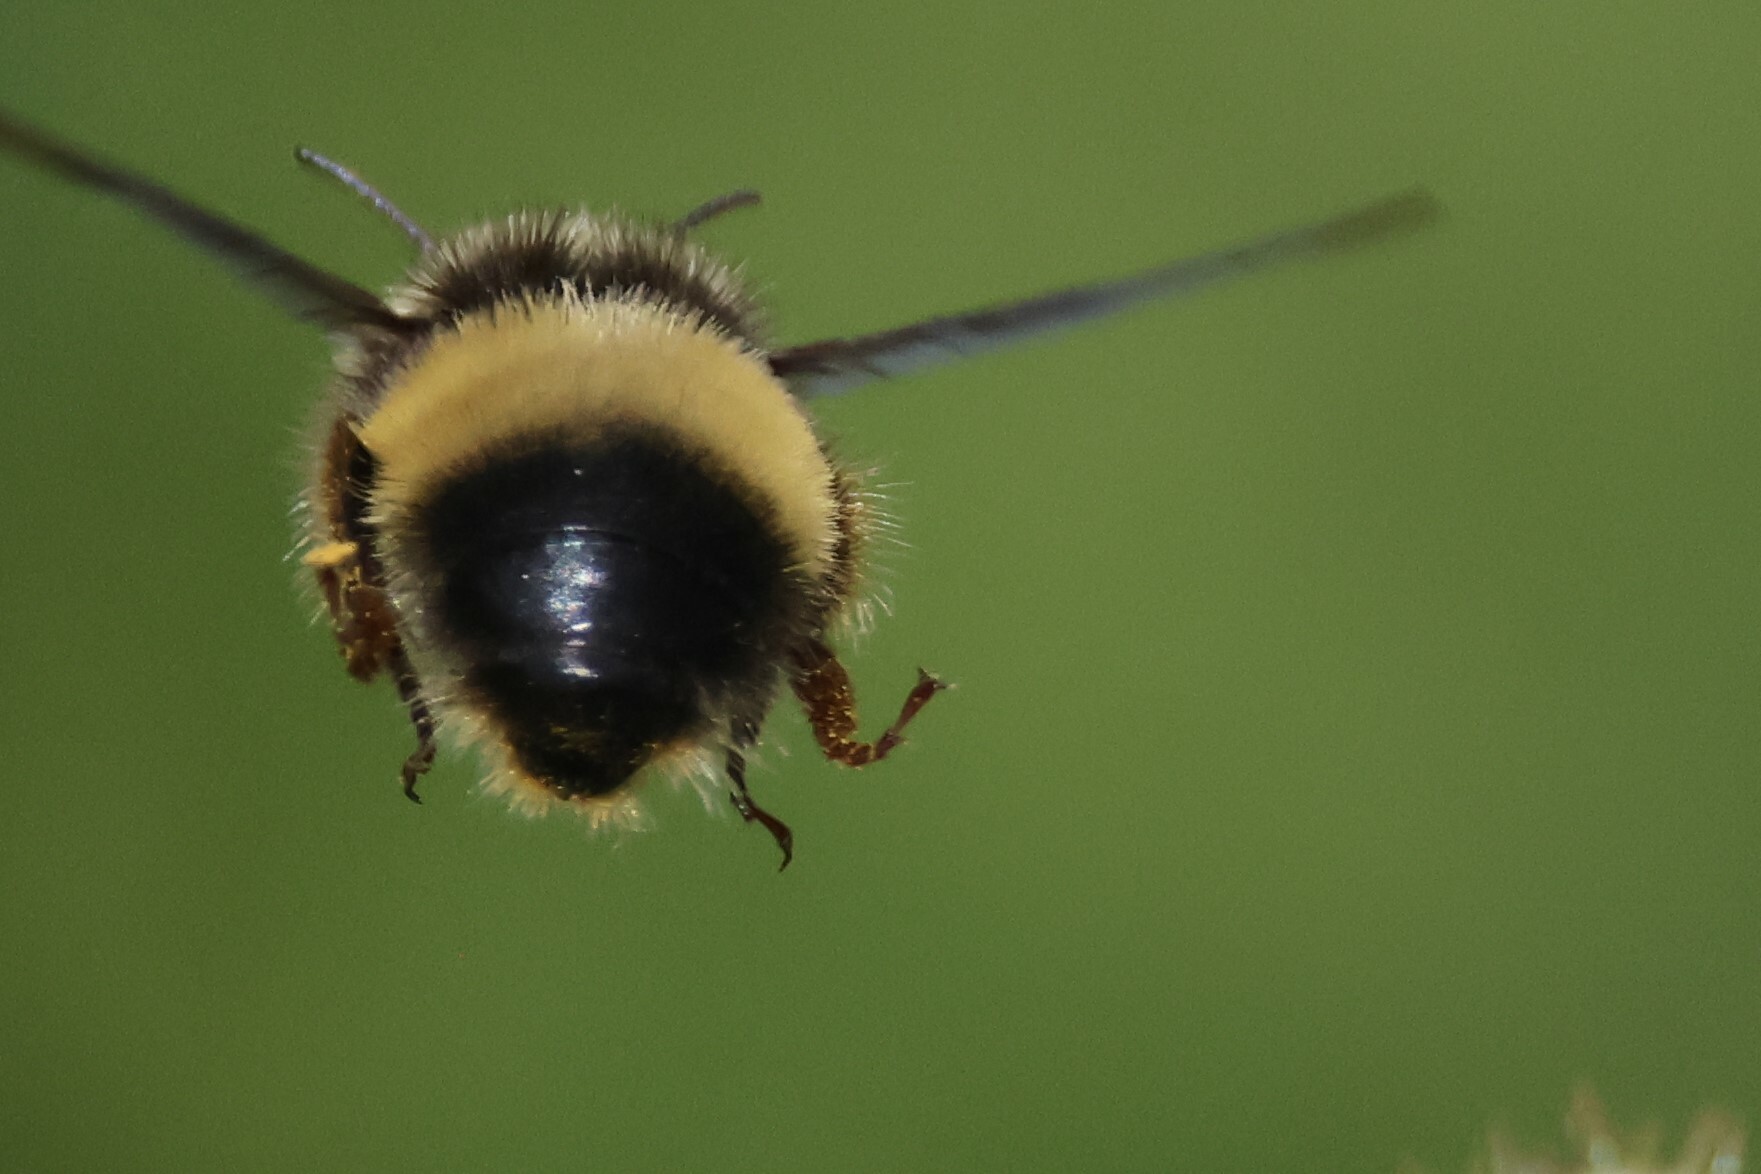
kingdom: Animalia
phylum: Arthropoda
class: Insecta
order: Hymenoptera
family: Apidae
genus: Bombus
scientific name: Bombus terricola
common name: Yellow-banded bumble bee
